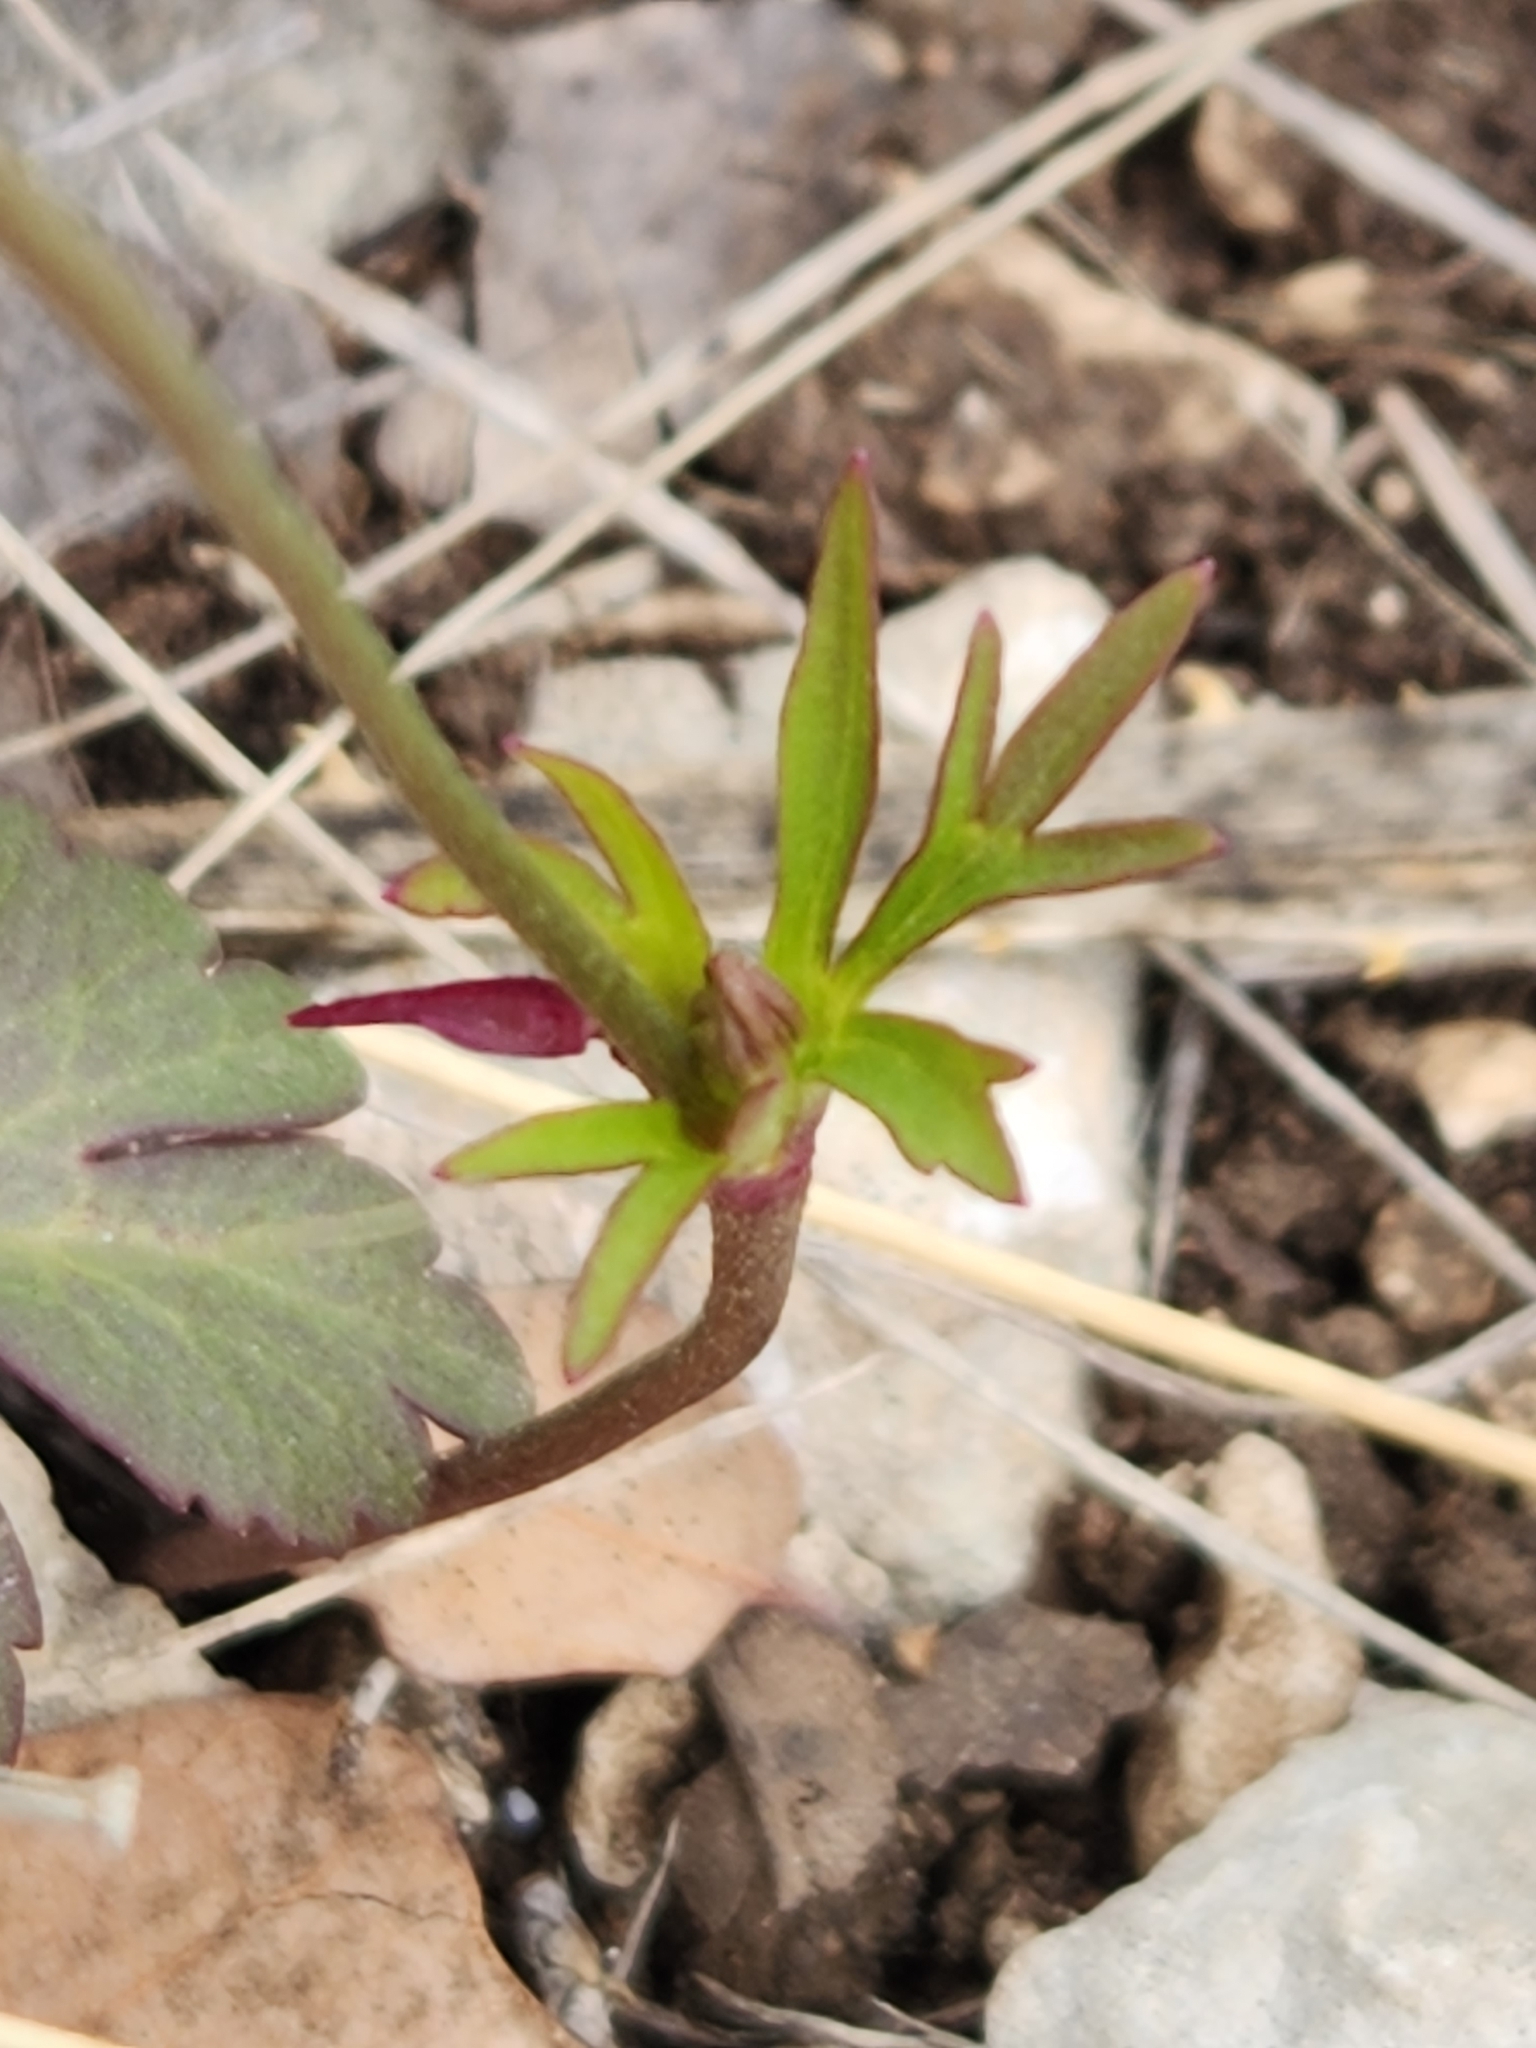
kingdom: Plantae
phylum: Tracheophyta
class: Magnoliopsida
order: Ranunculales
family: Ranunculaceae
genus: Anemone
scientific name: Anemone edwardsiana
